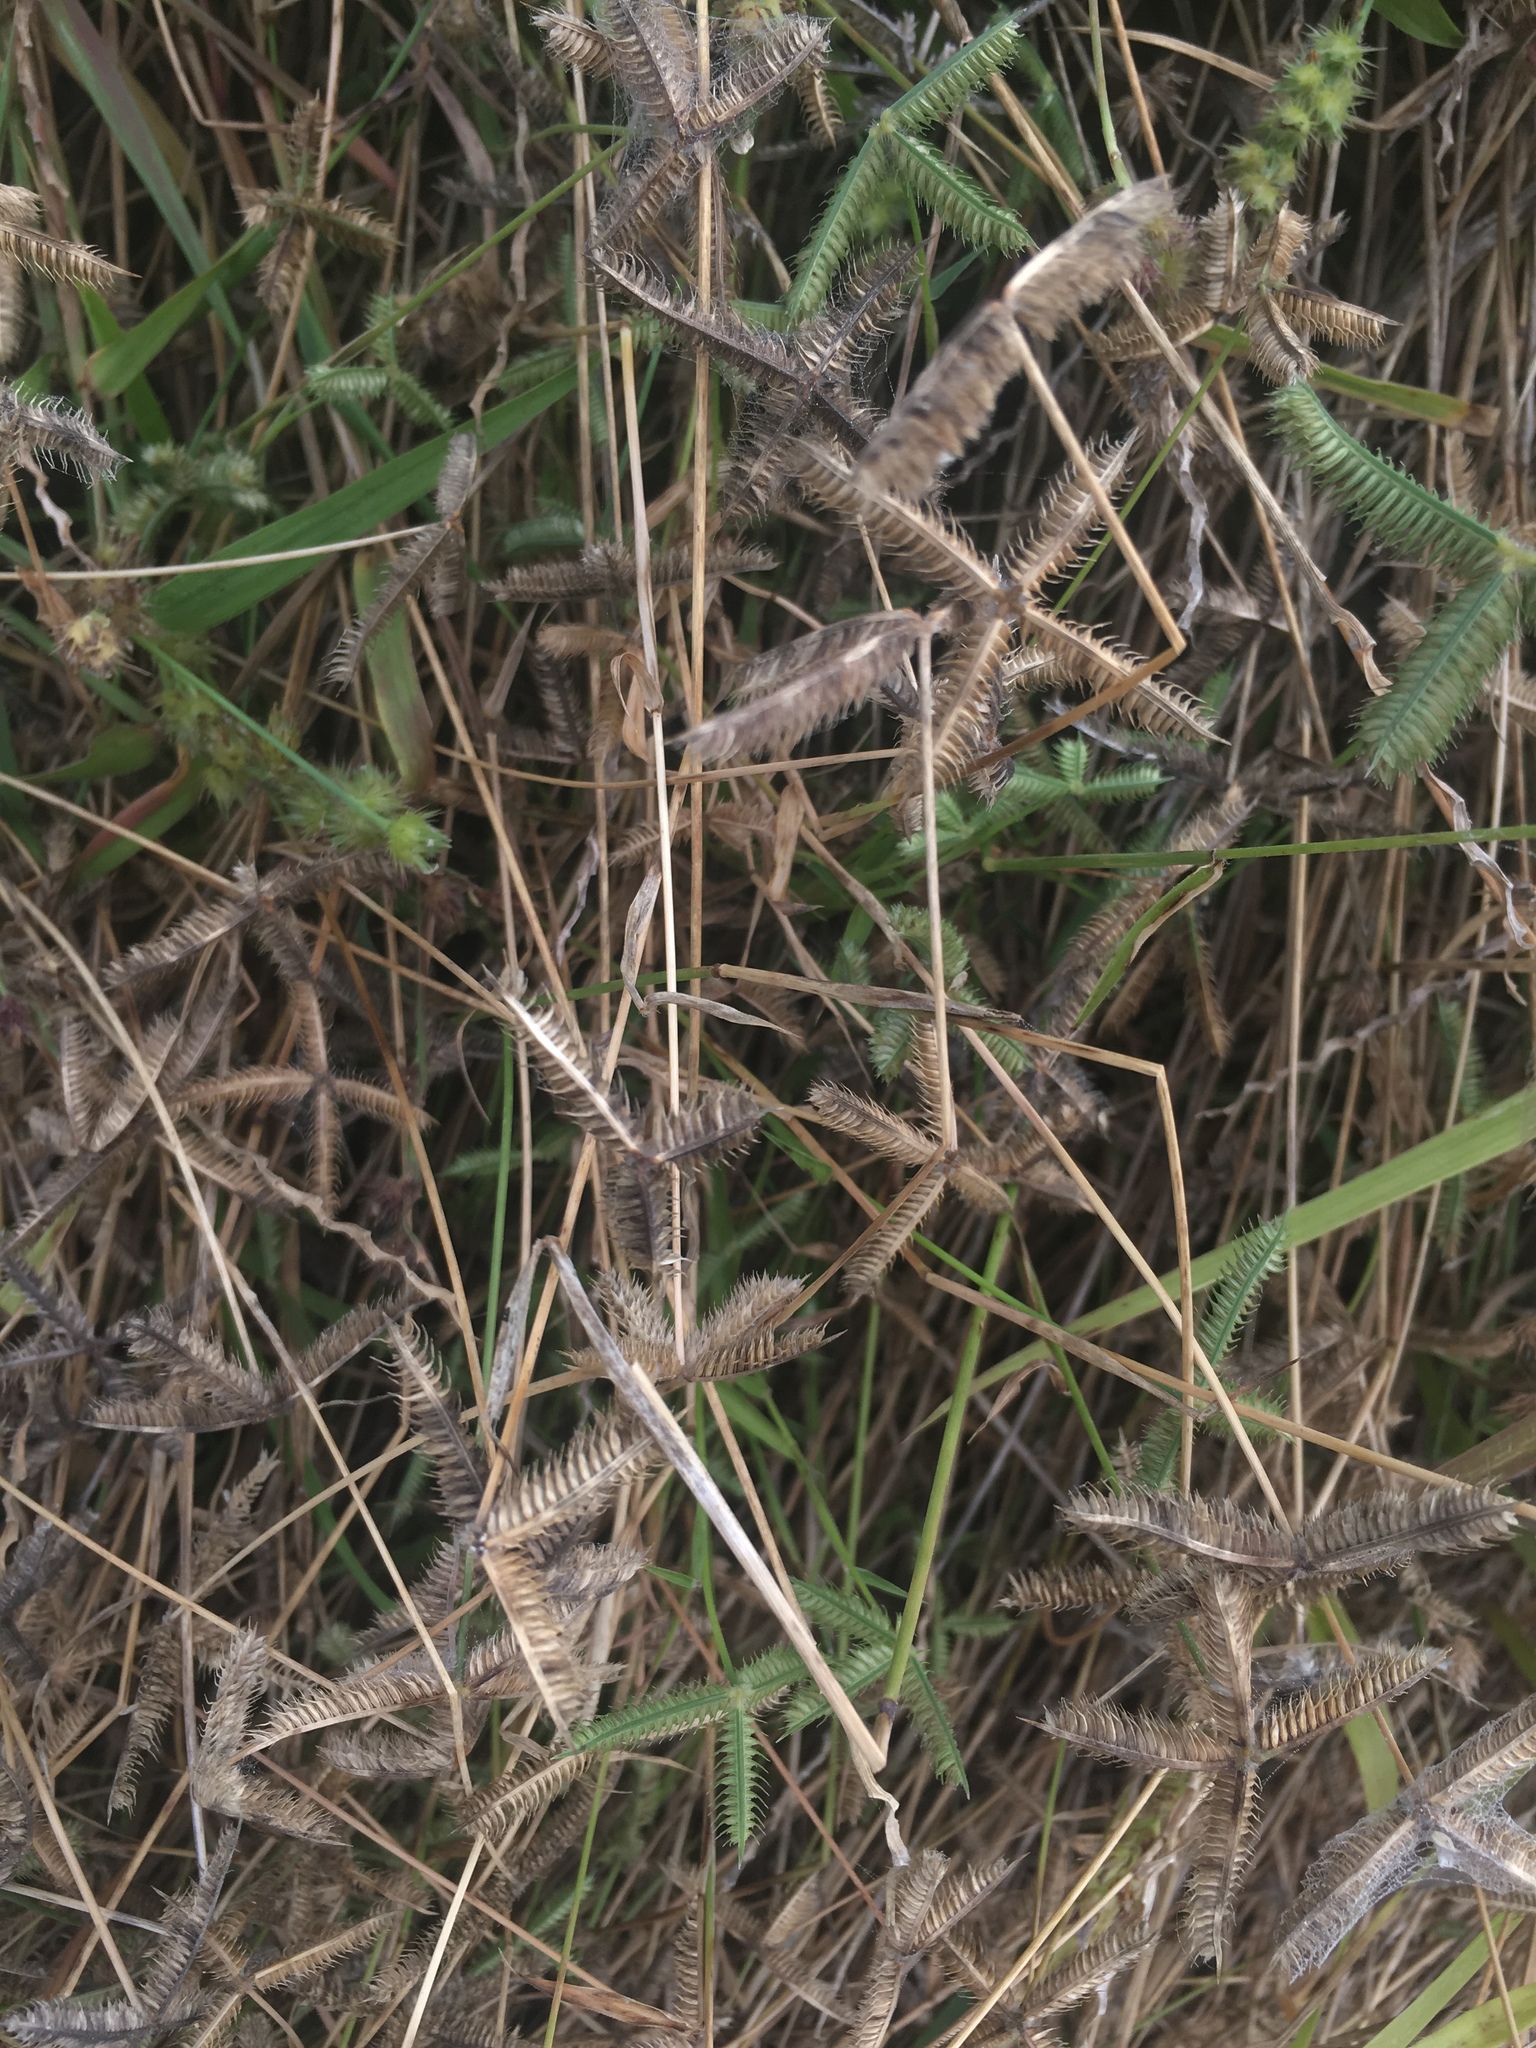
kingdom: Plantae
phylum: Tracheophyta
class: Liliopsida
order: Poales
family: Poaceae
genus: Dactyloctenium
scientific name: Dactyloctenium aegyptium
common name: Egyptian grass
